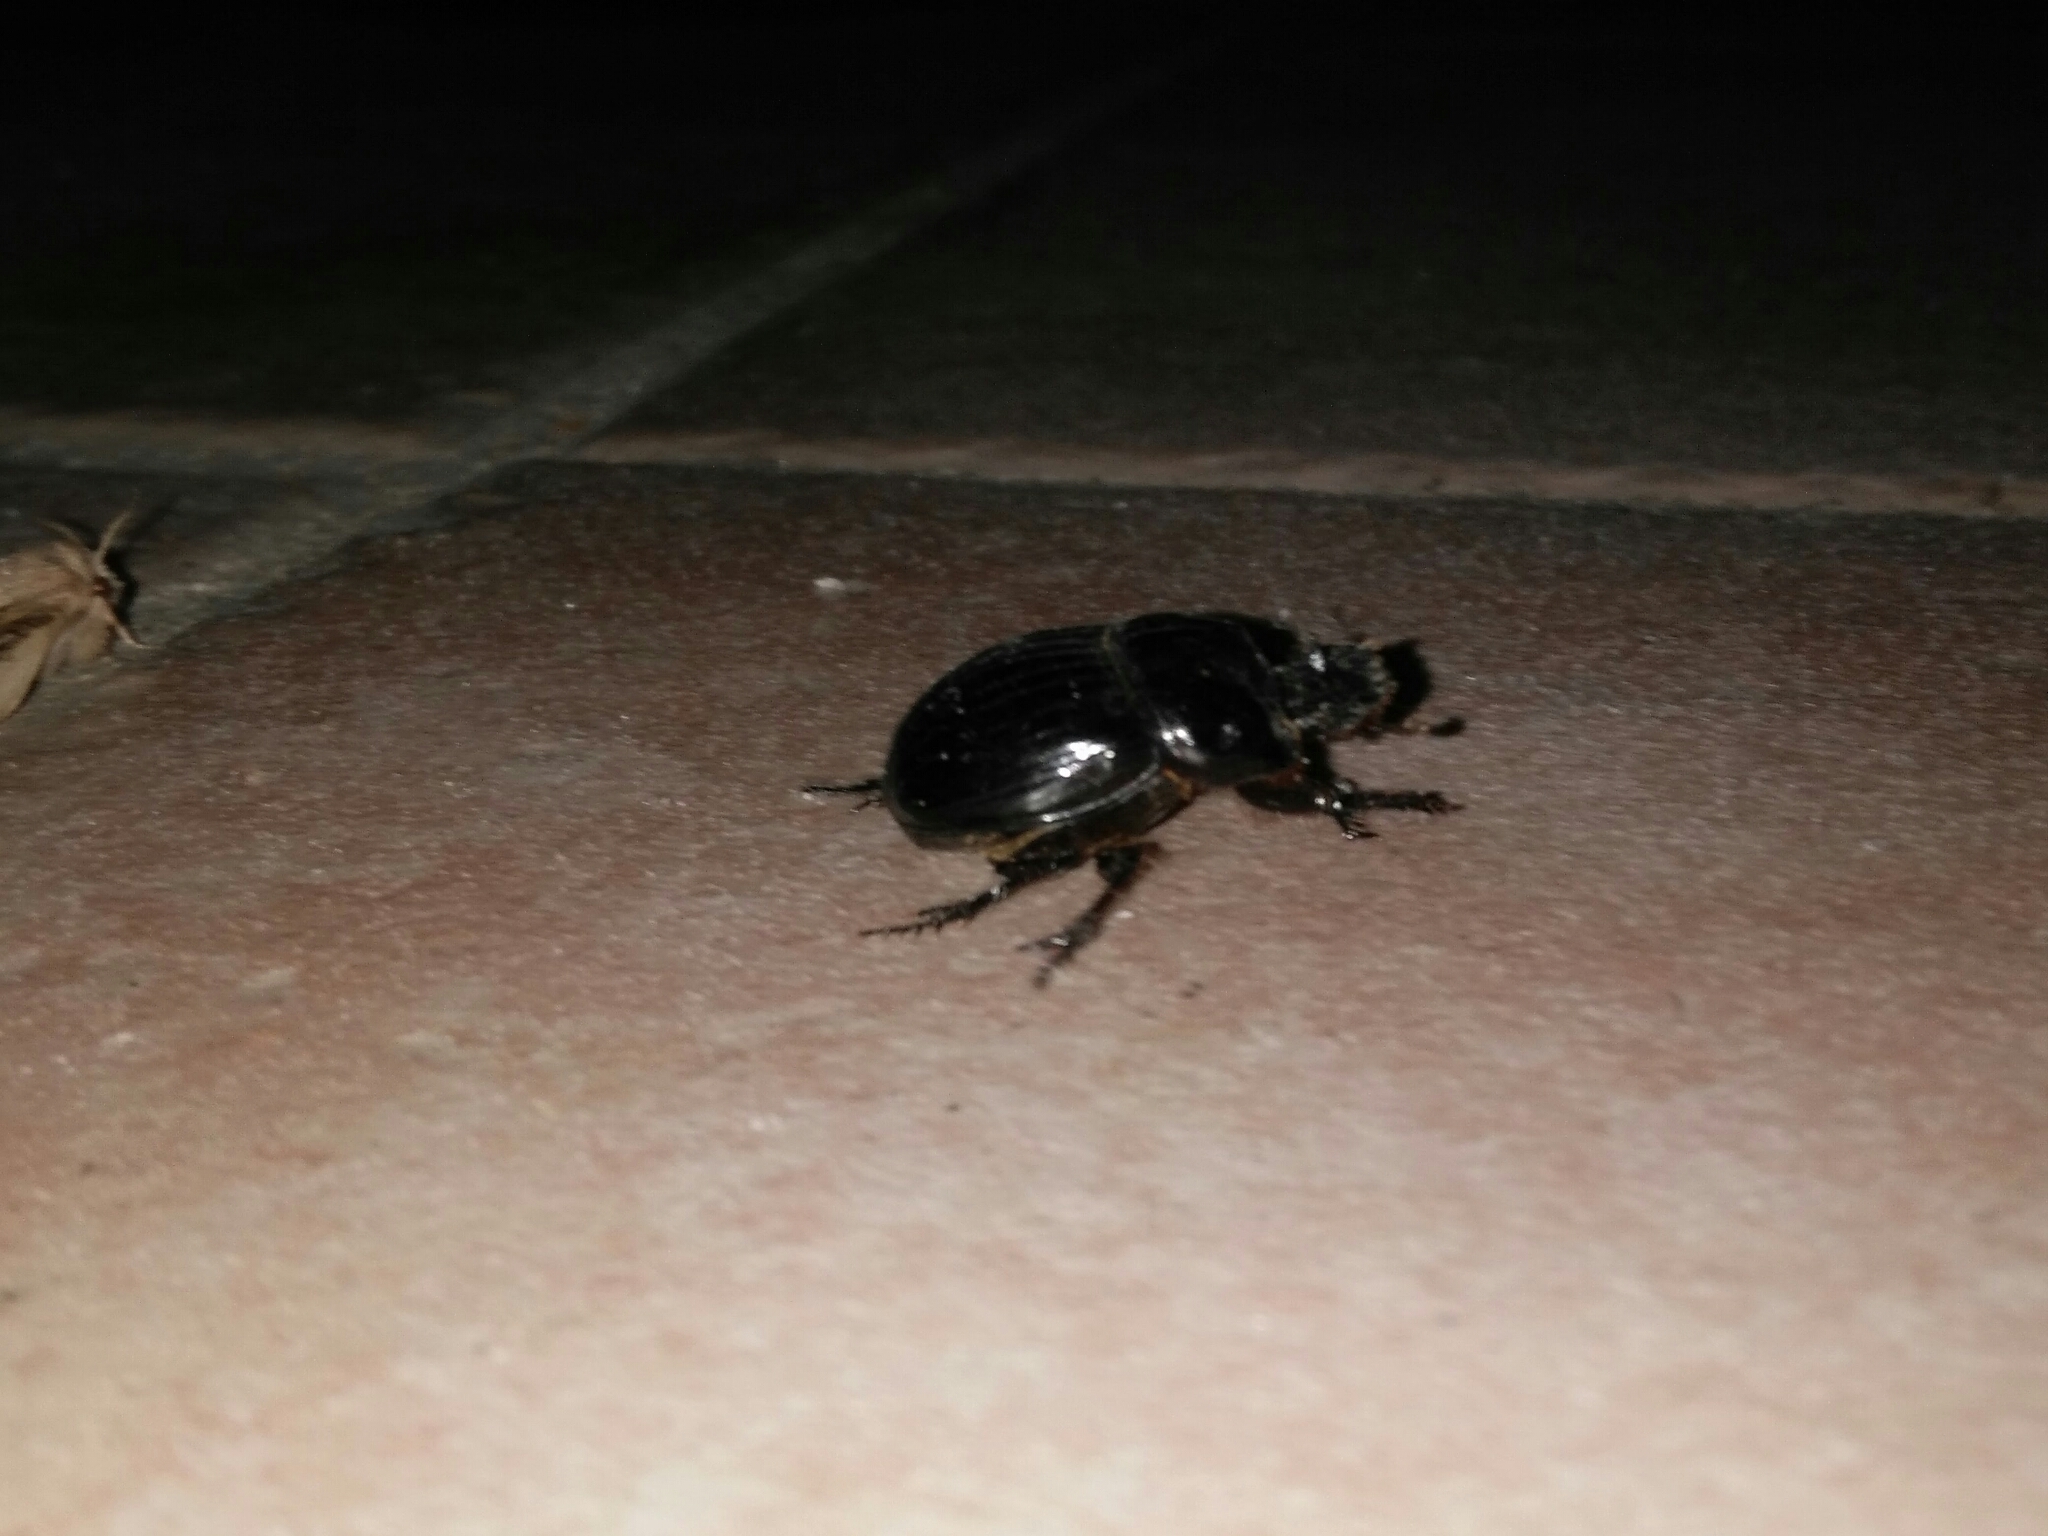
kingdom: Animalia
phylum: Arthropoda
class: Insecta
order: Coleoptera
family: Scarabaeidae
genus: Copris
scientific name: Copris lunaris
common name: Horned dung beetle
